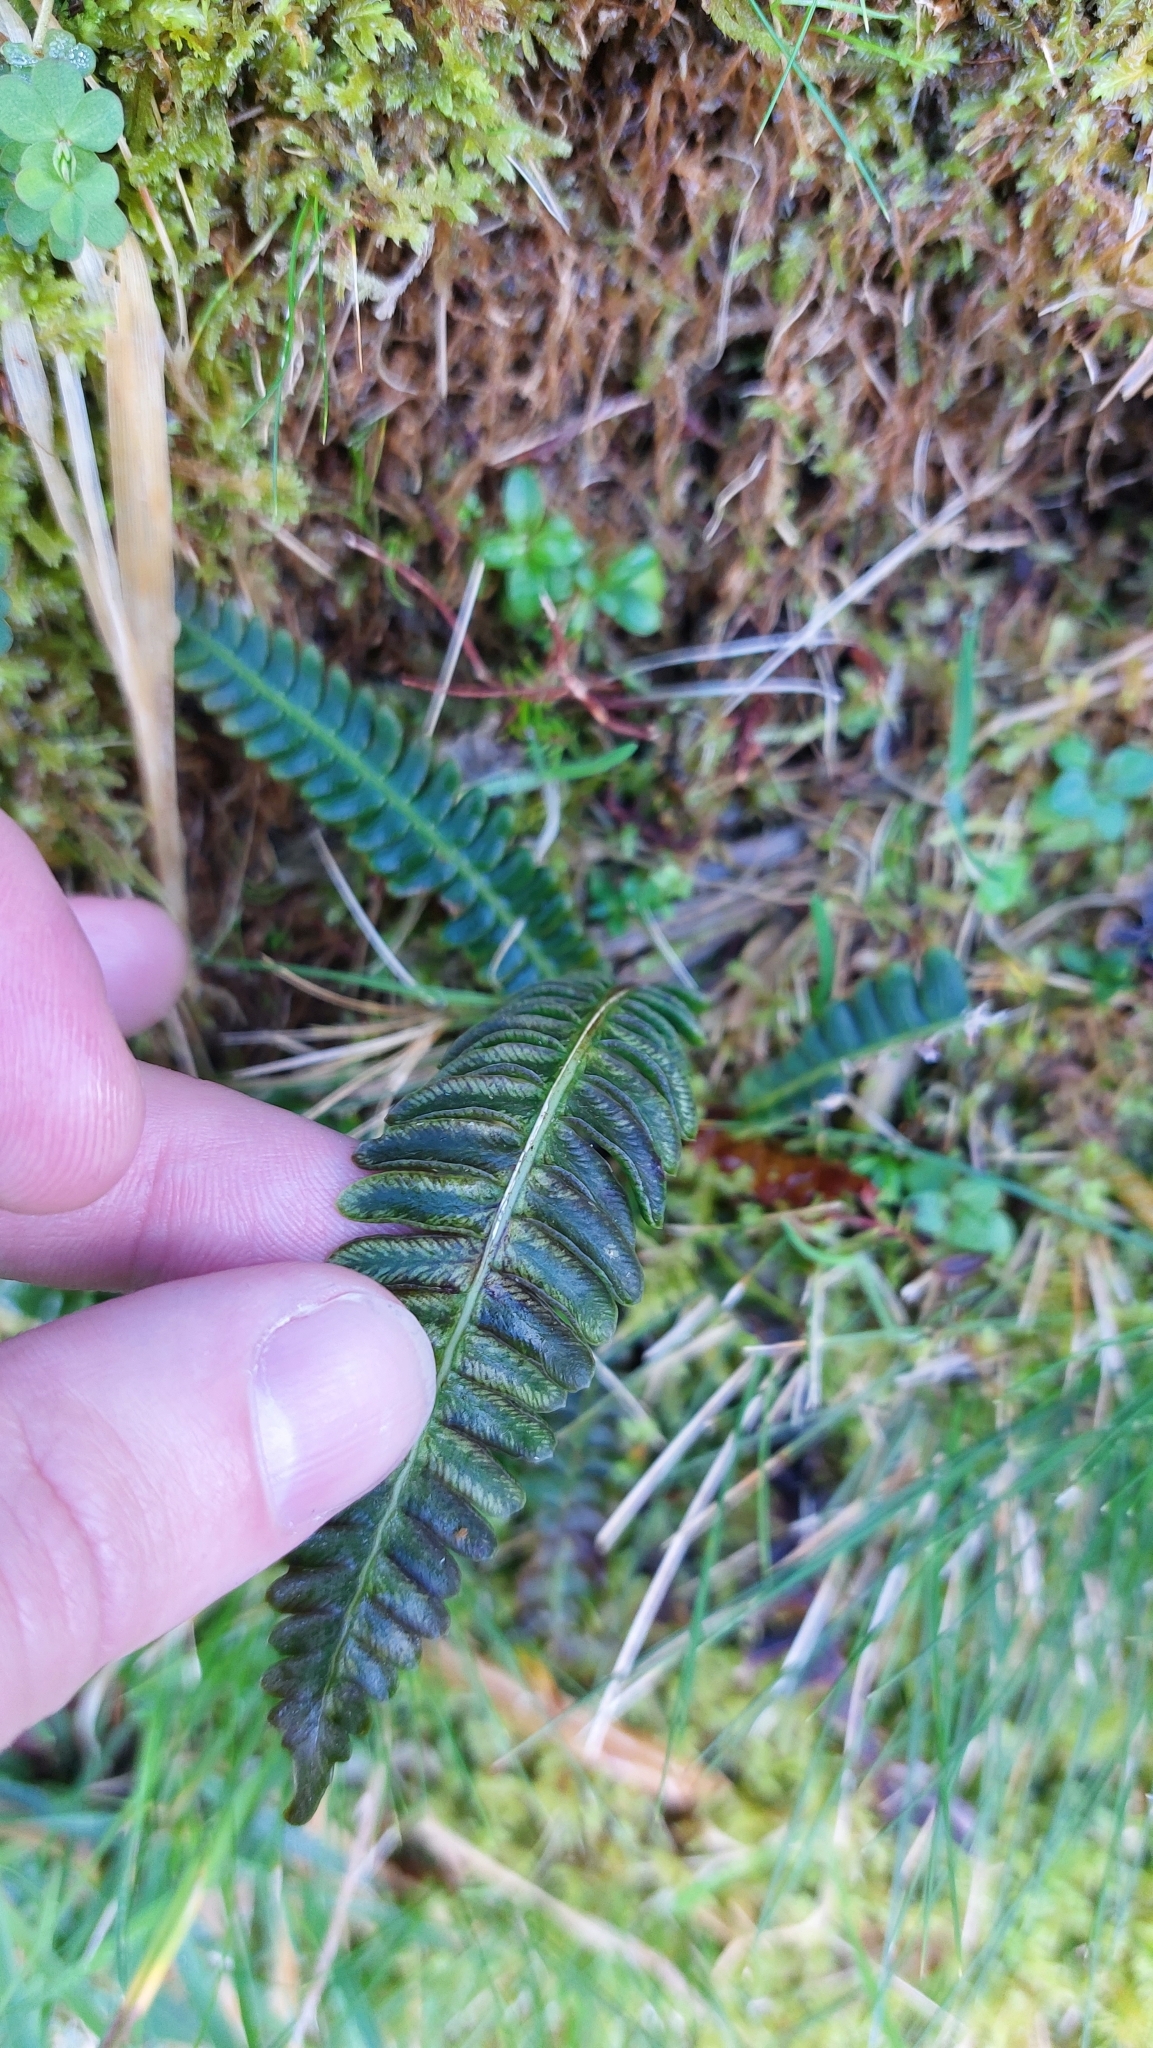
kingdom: Plantae
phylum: Tracheophyta
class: Polypodiopsida
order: Polypodiales
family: Blechnaceae
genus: Struthiopteris
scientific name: Struthiopteris spicant
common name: Deer fern
